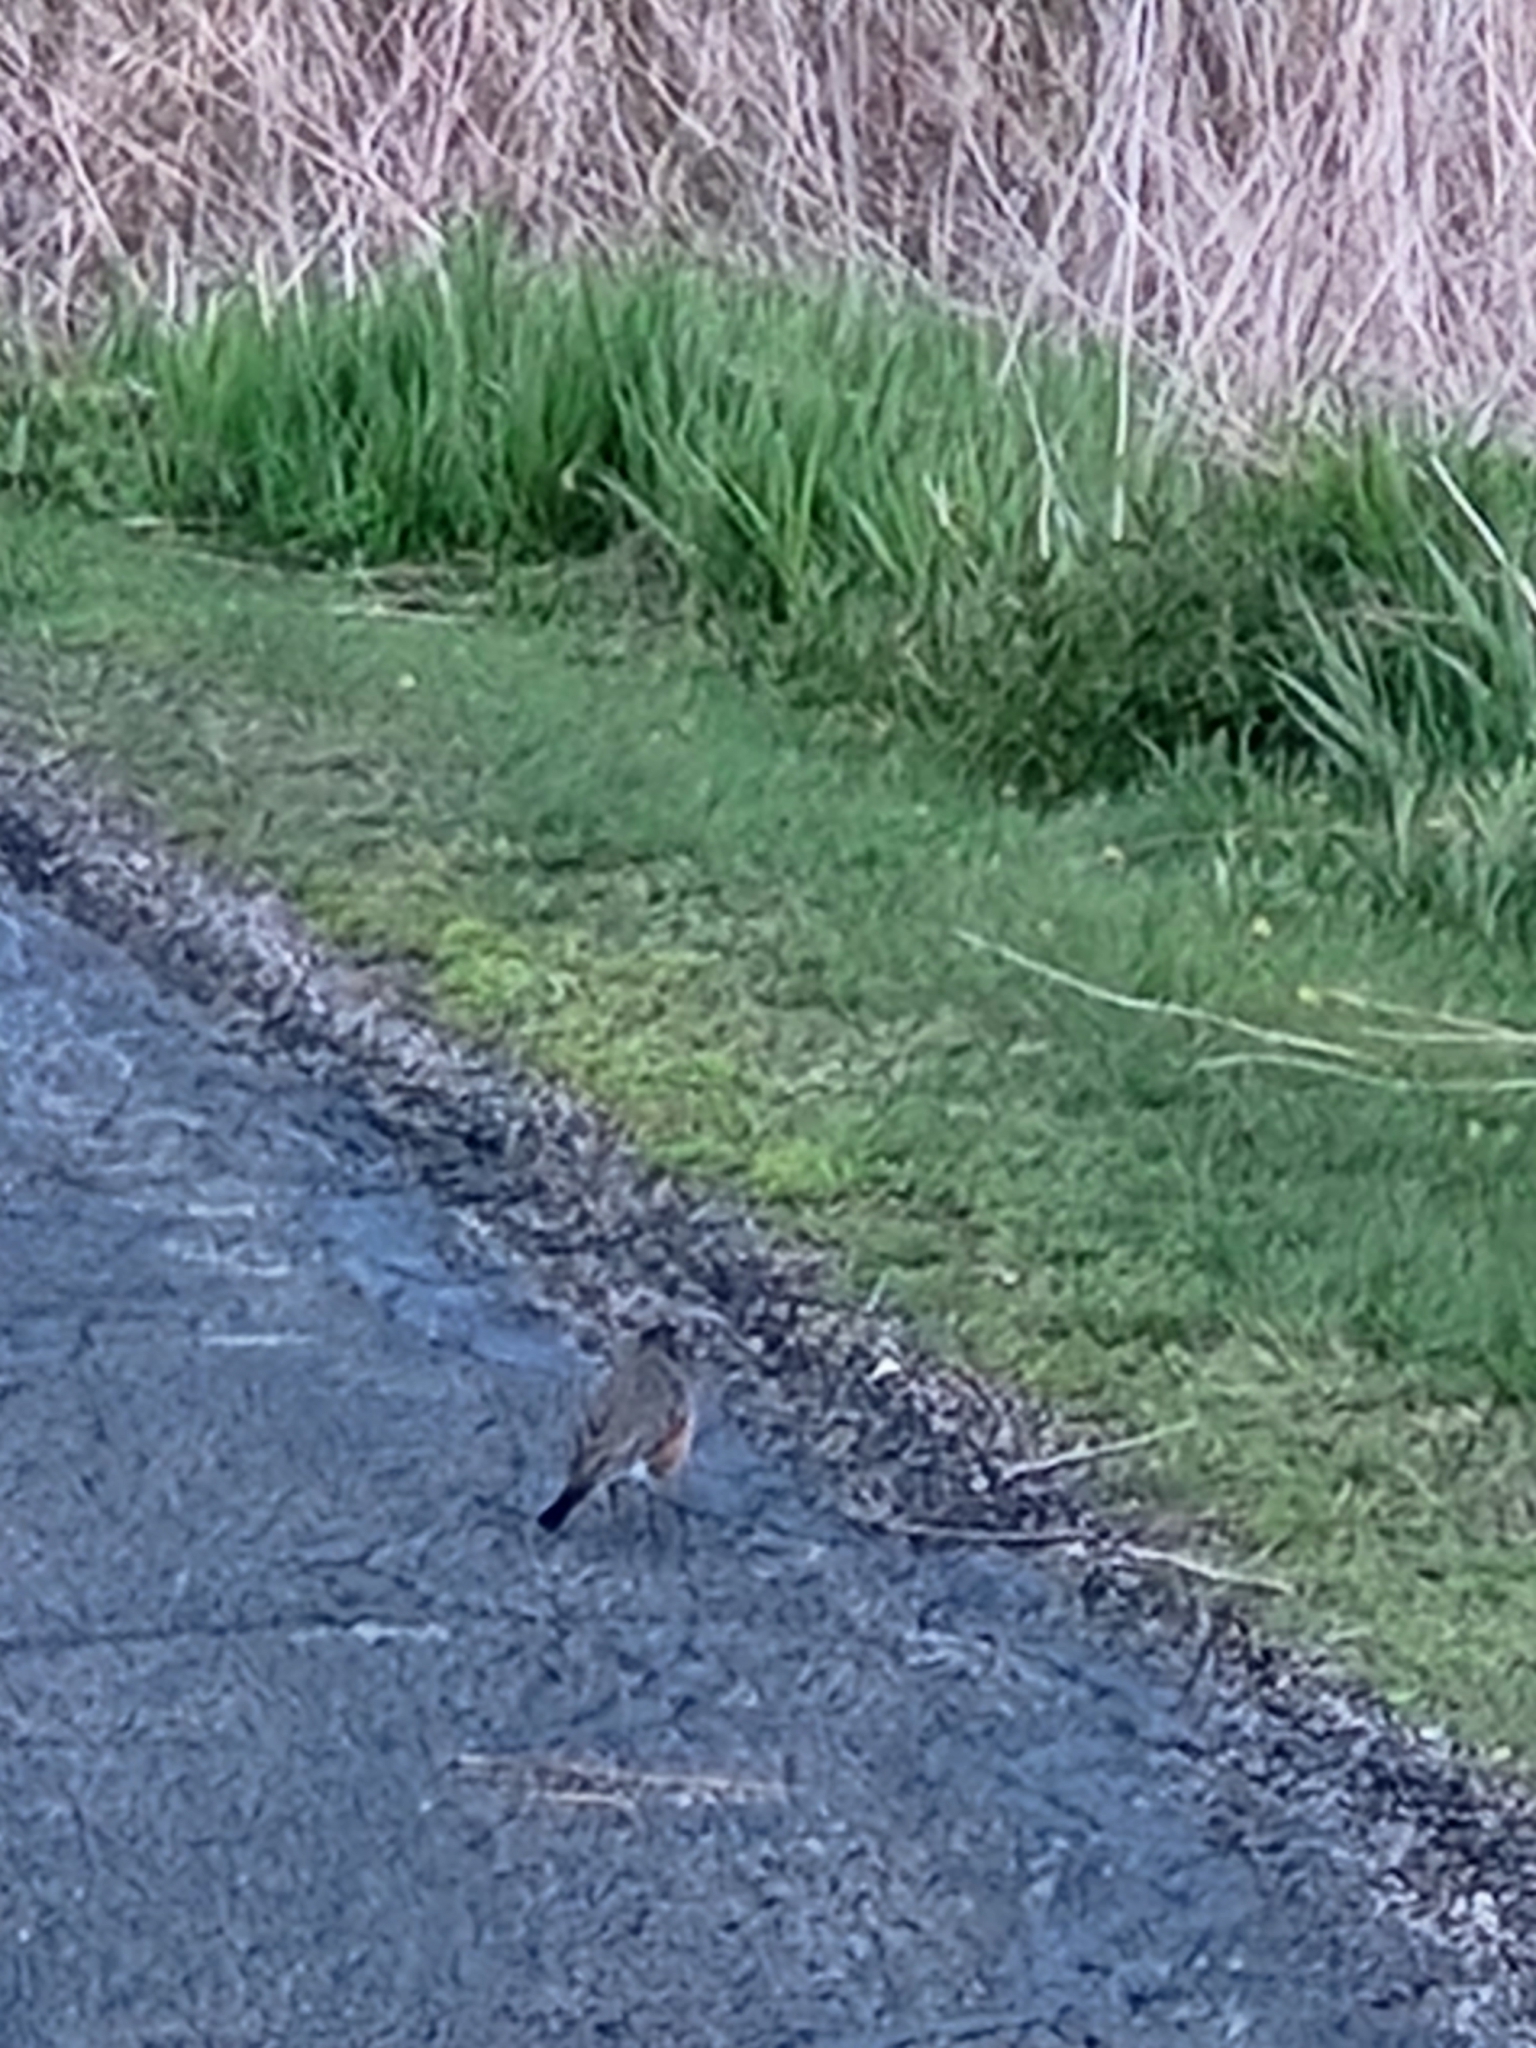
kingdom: Animalia
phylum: Chordata
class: Aves
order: Passeriformes
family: Turdidae
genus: Turdus
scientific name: Turdus migratorius
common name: American robin
